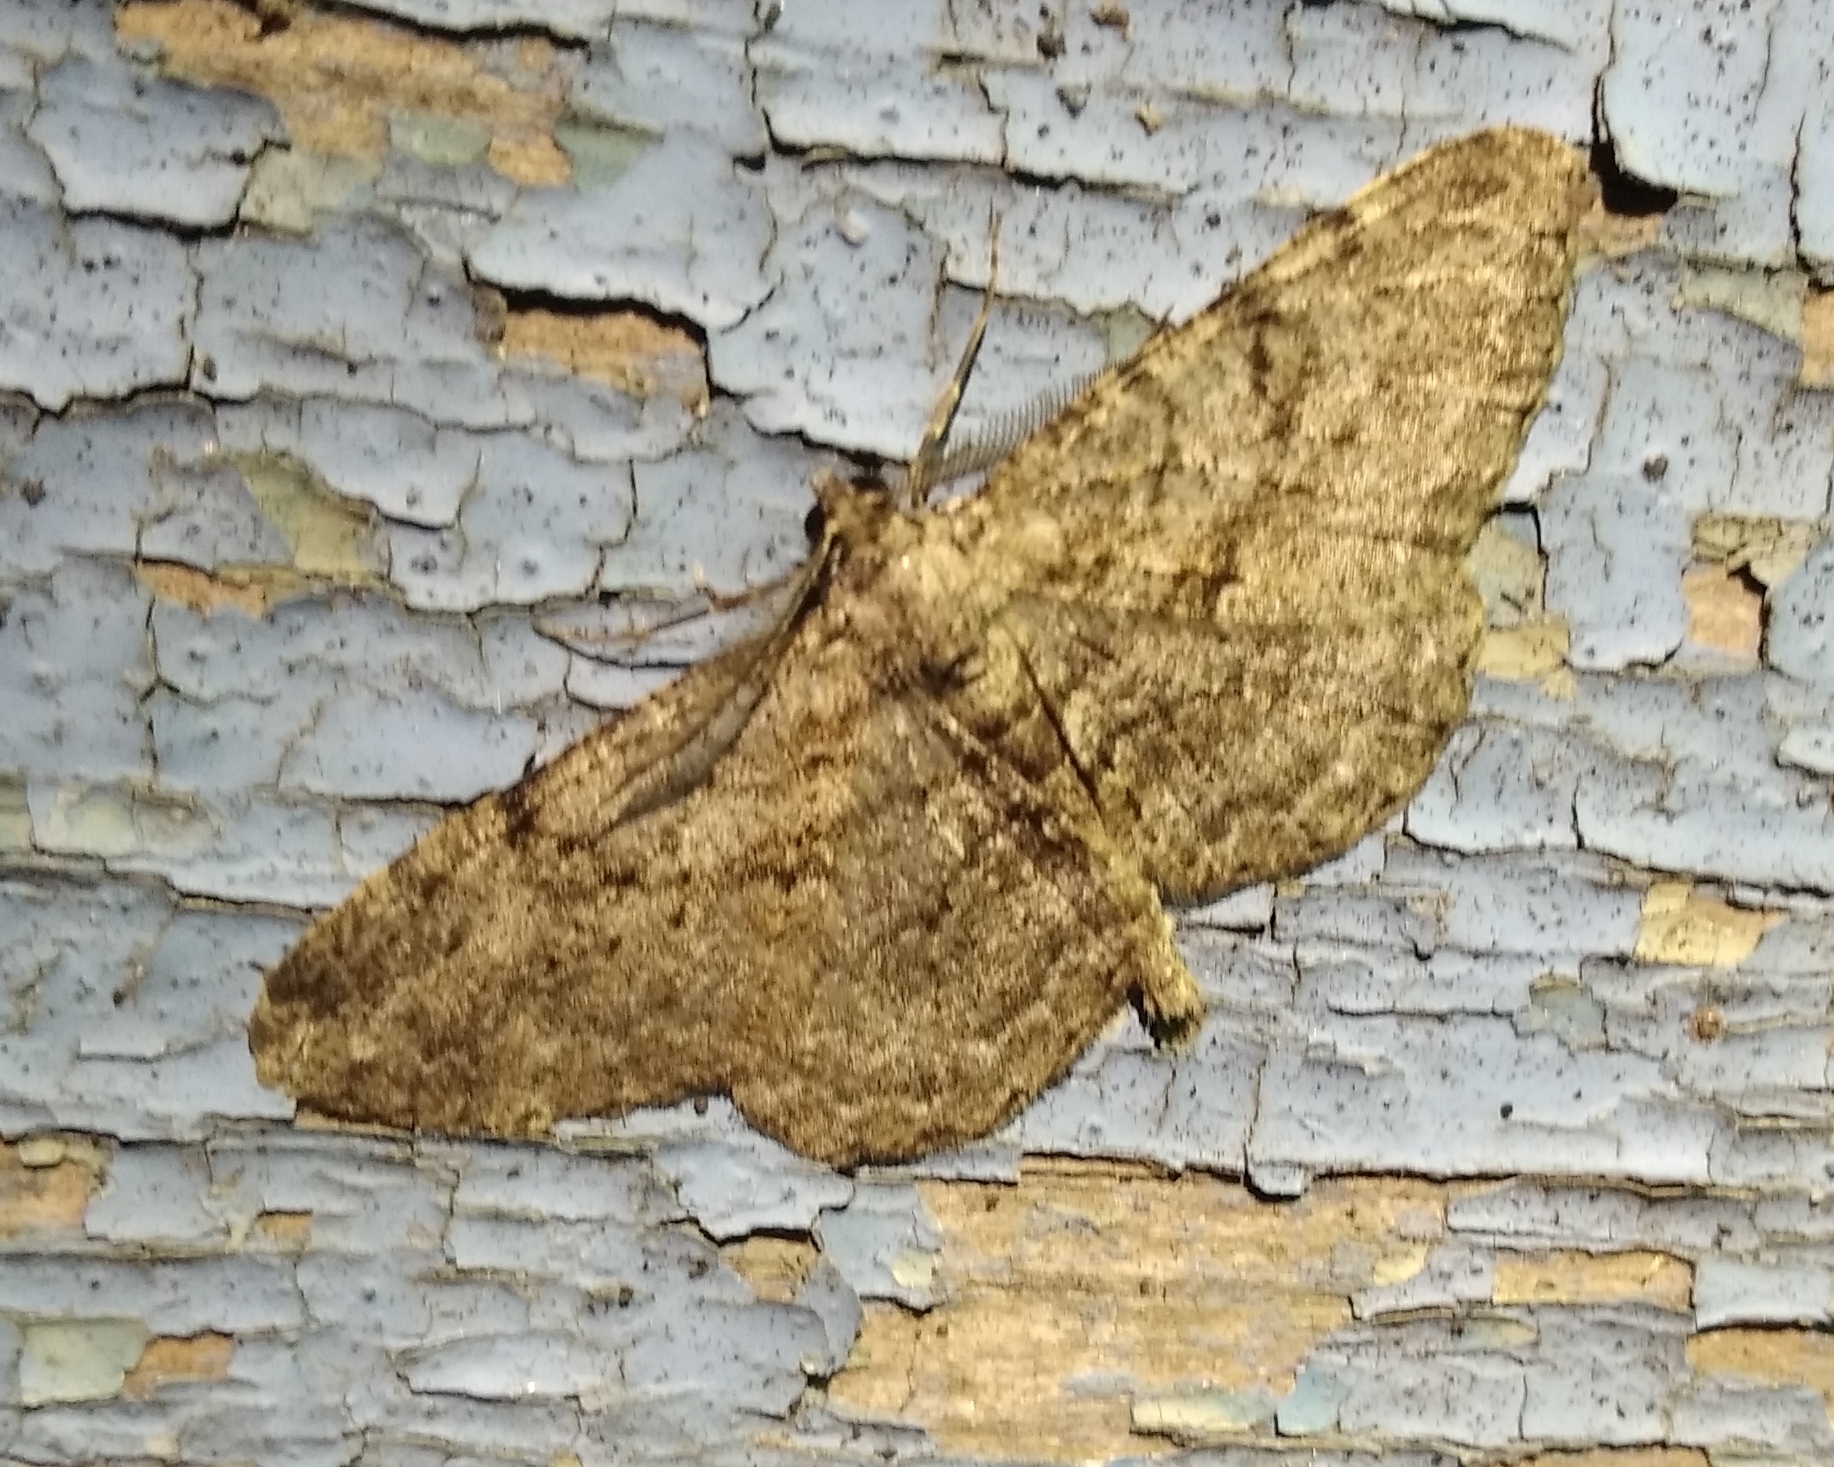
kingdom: Animalia
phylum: Arthropoda
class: Insecta
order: Lepidoptera
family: Geometridae
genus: Peribatodes
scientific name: Peribatodes rhomboidaria
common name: Willow beauty
